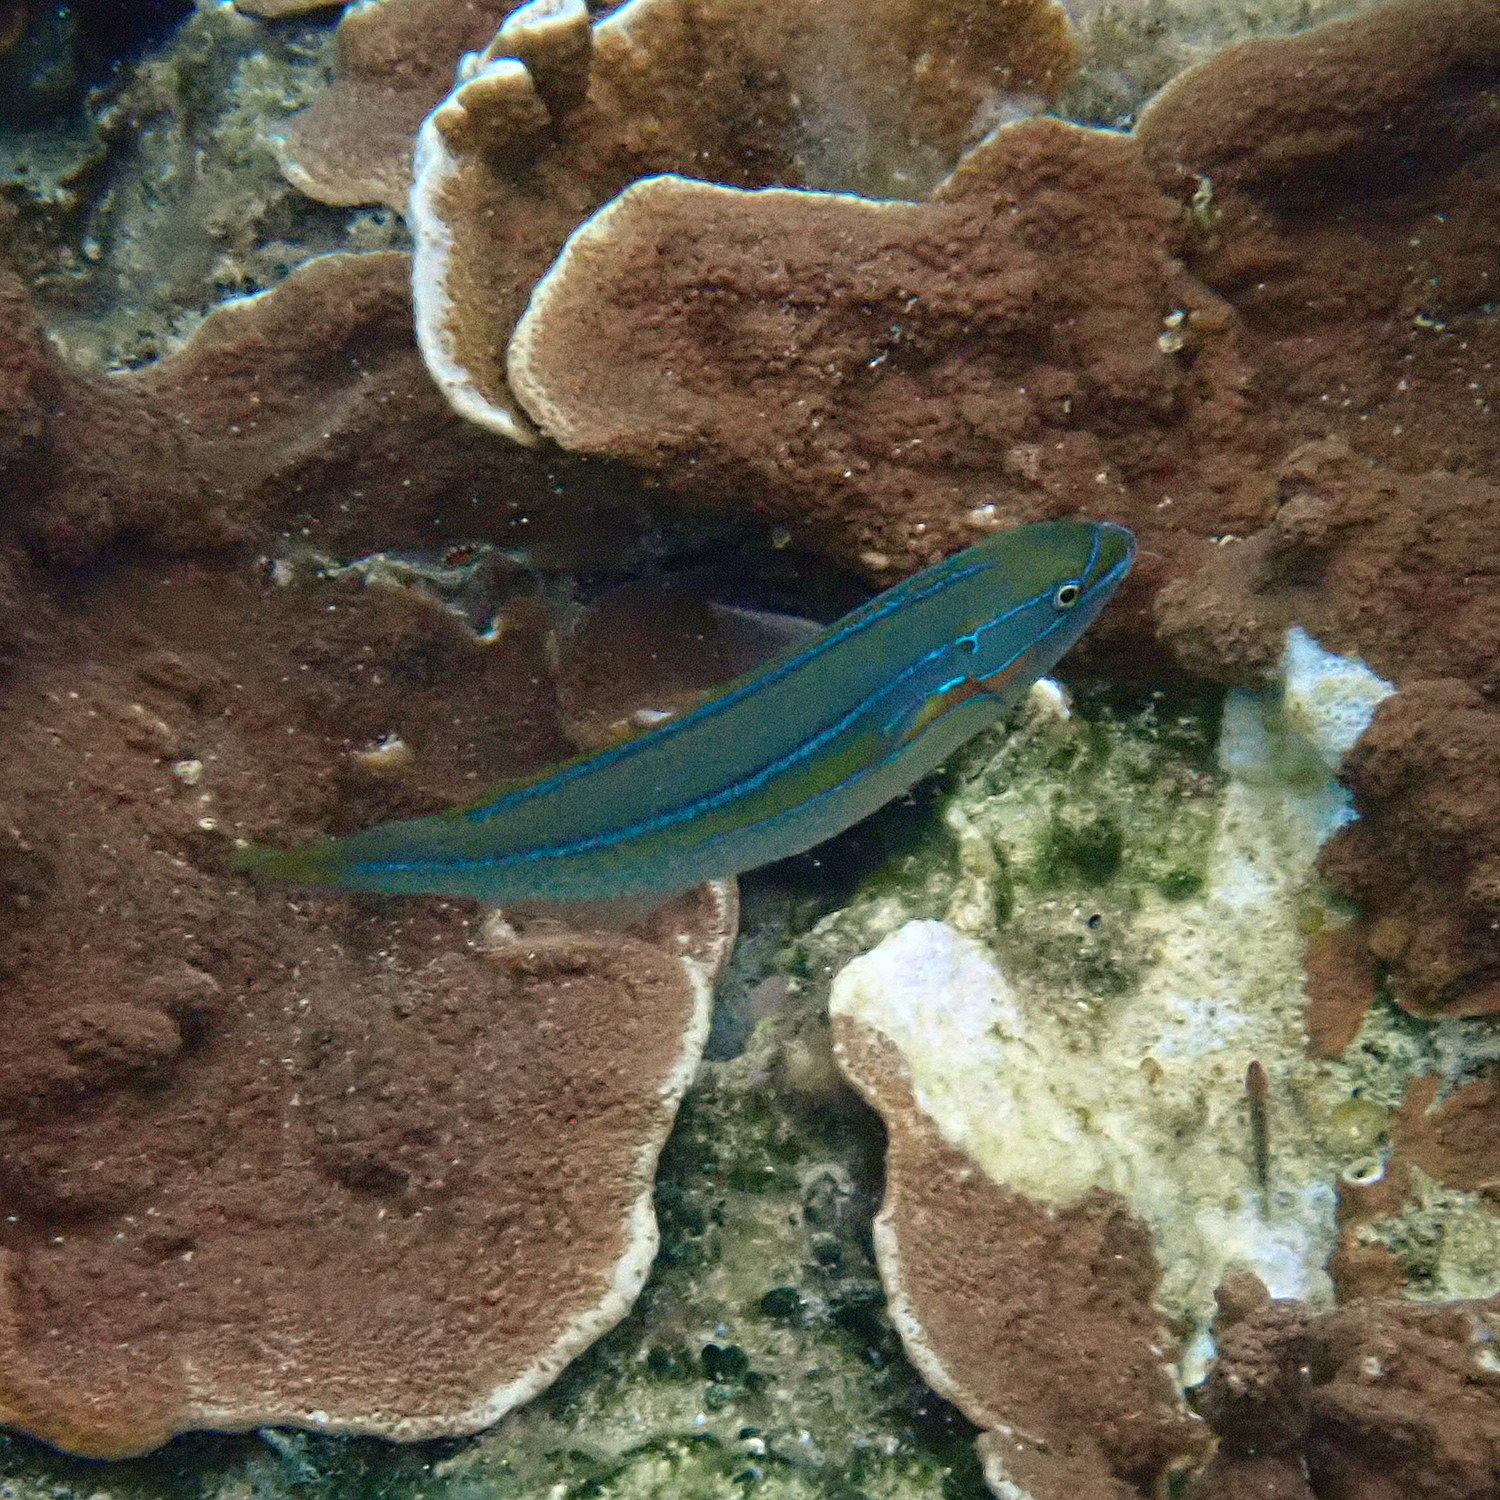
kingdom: Animalia
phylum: Chordata
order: Perciformes
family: Labridae
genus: Stethojulis
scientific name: Stethojulis bandanensis
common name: Red shoulder wrasse
